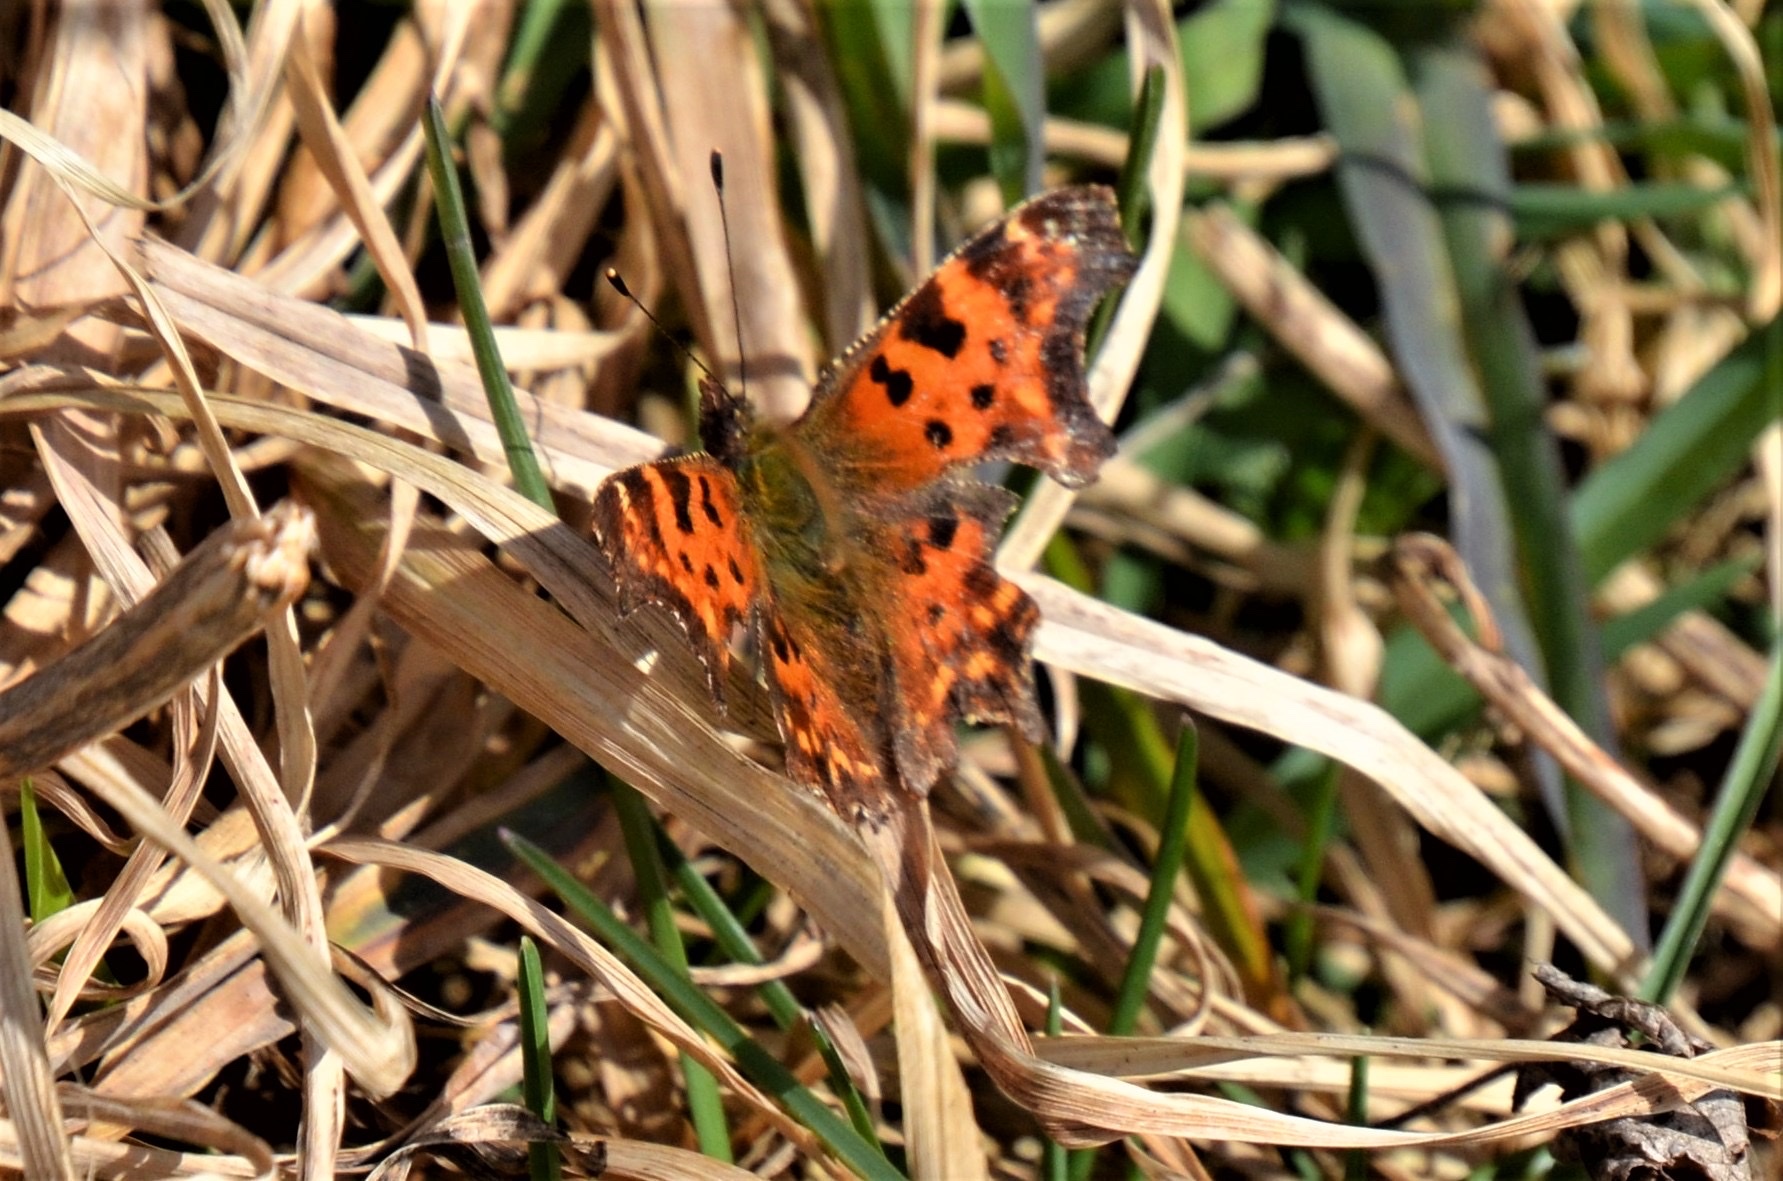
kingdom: Animalia
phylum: Arthropoda
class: Insecta
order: Lepidoptera
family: Nymphalidae
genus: Polygonia
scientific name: Polygonia c-album
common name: Comma
